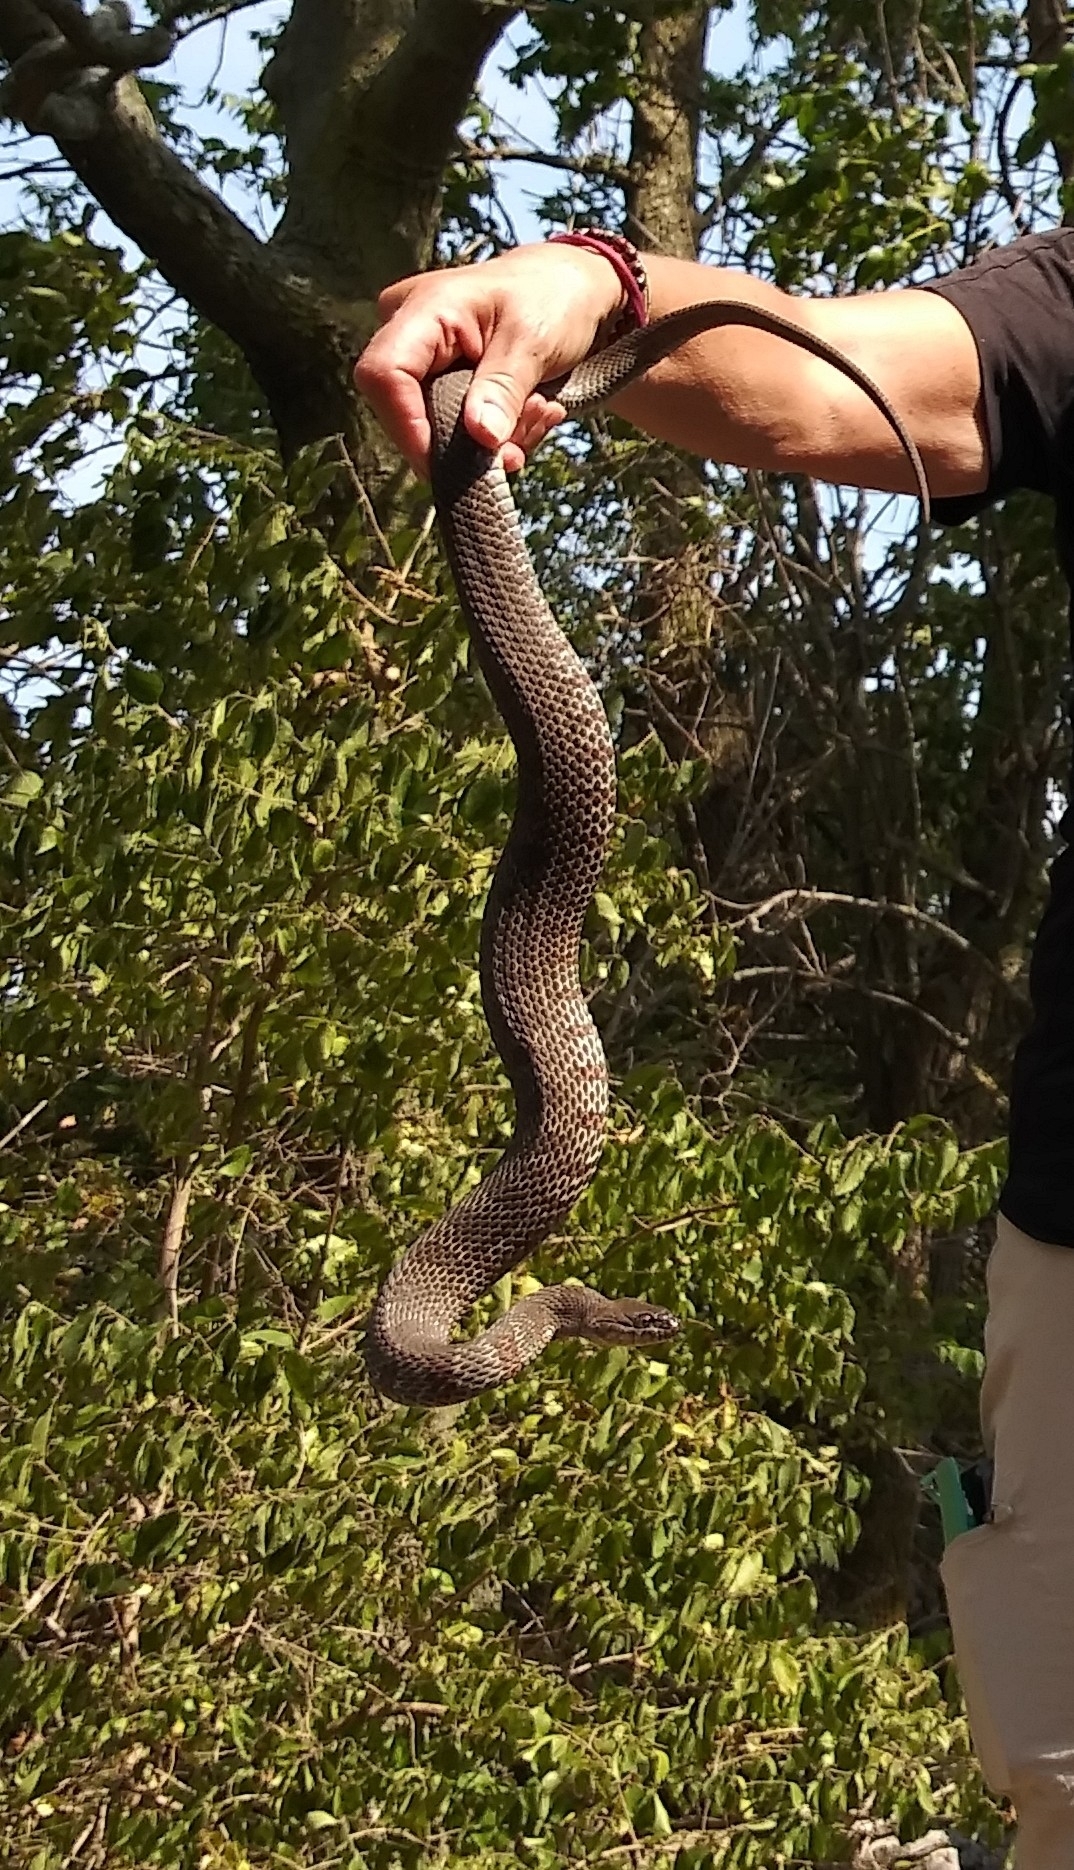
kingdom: Animalia
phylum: Chordata
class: Squamata
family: Colubridae
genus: Nerodia
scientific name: Nerodia sipedon
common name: Northern water snake
